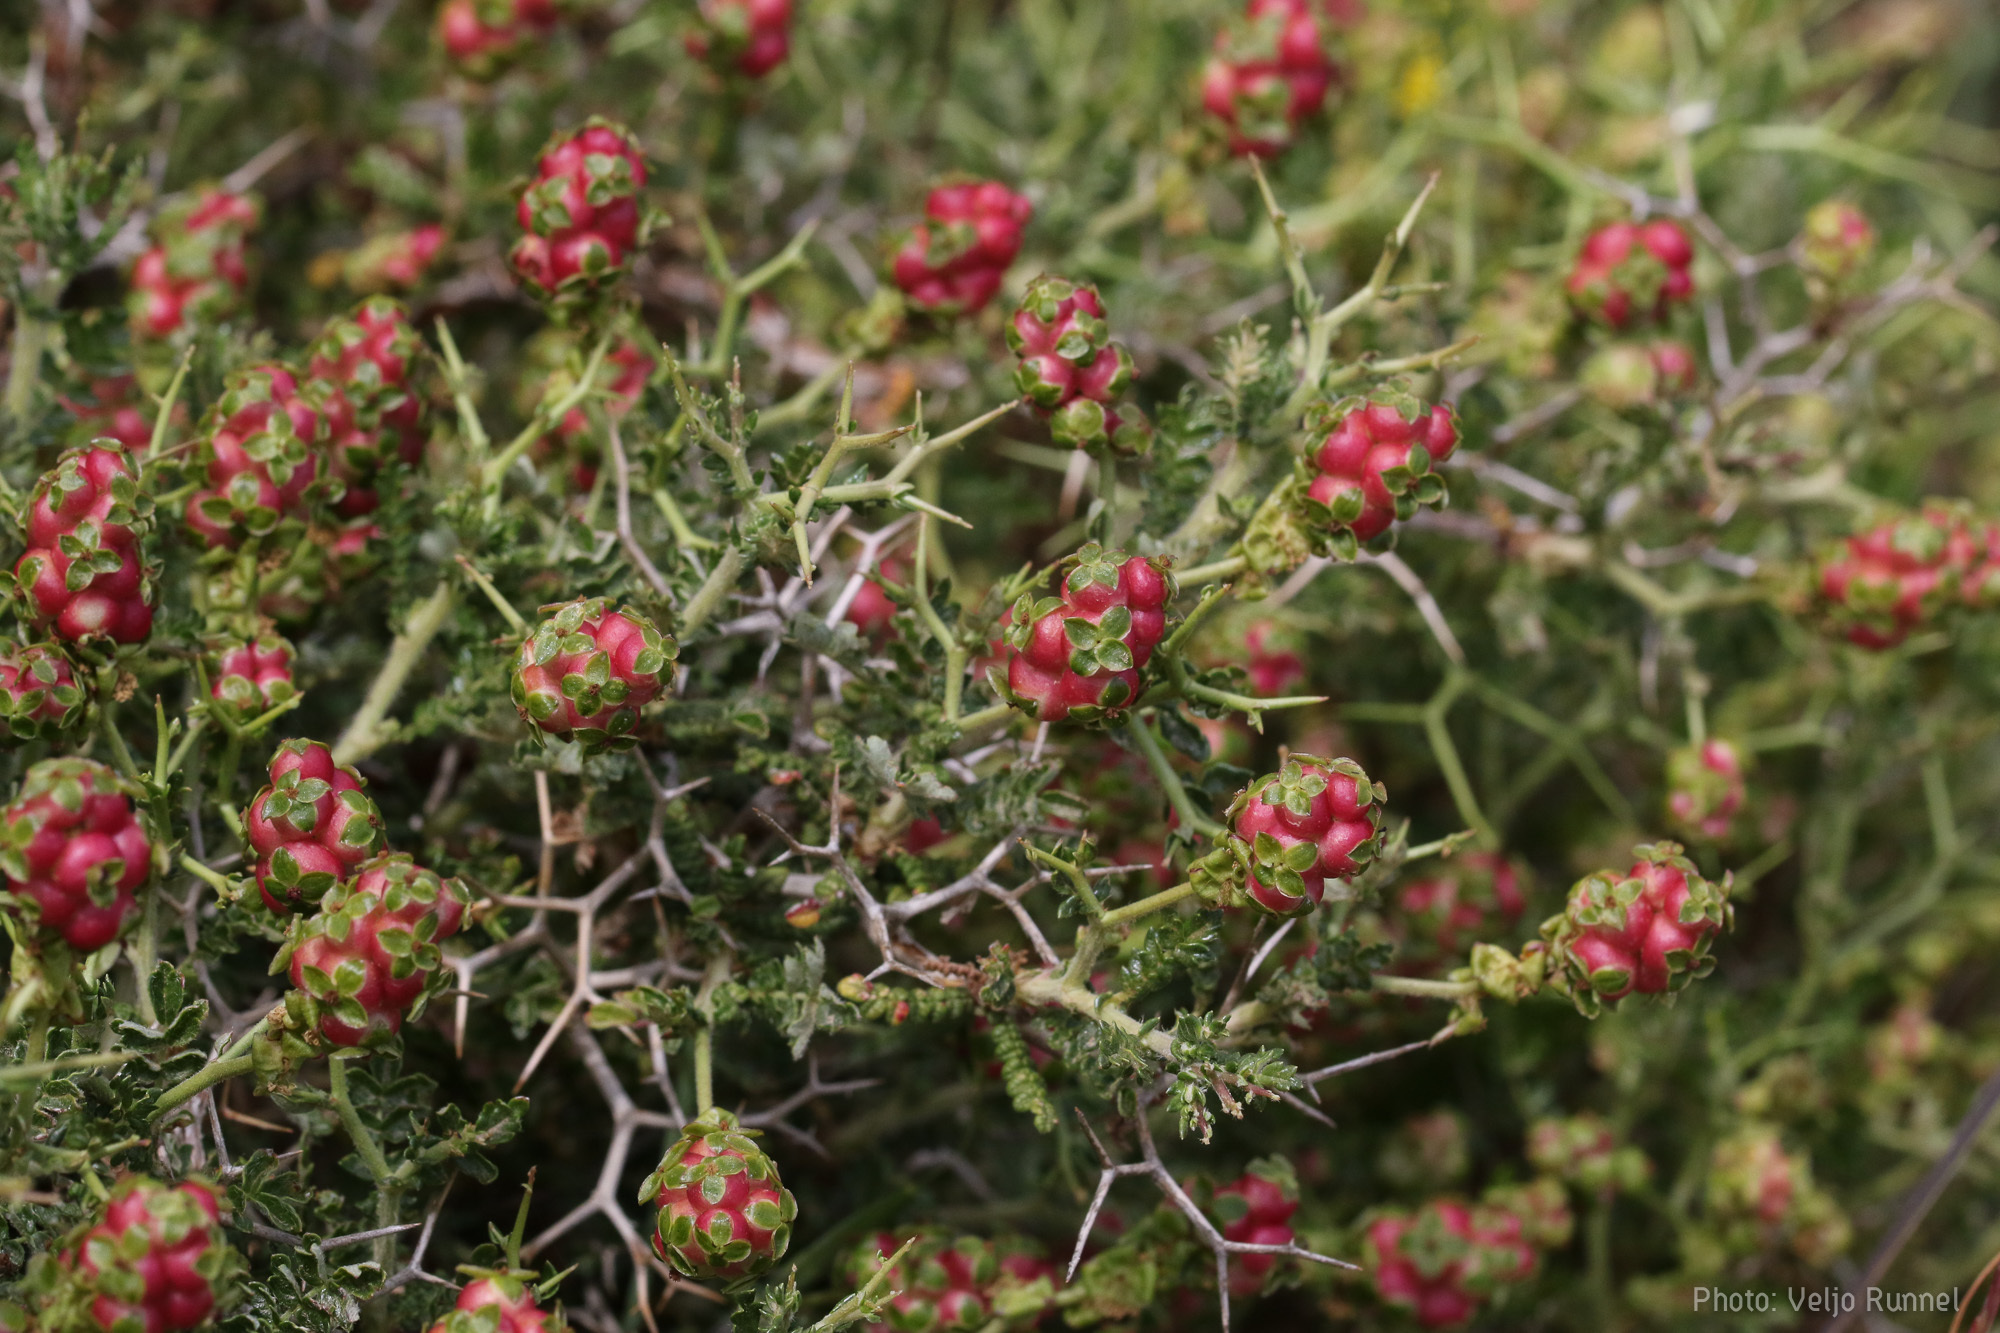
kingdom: Plantae
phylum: Tracheophyta
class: Magnoliopsida
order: Rosales
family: Rosaceae
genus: Sarcopoterium
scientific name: Sarcopoterium spinosum
